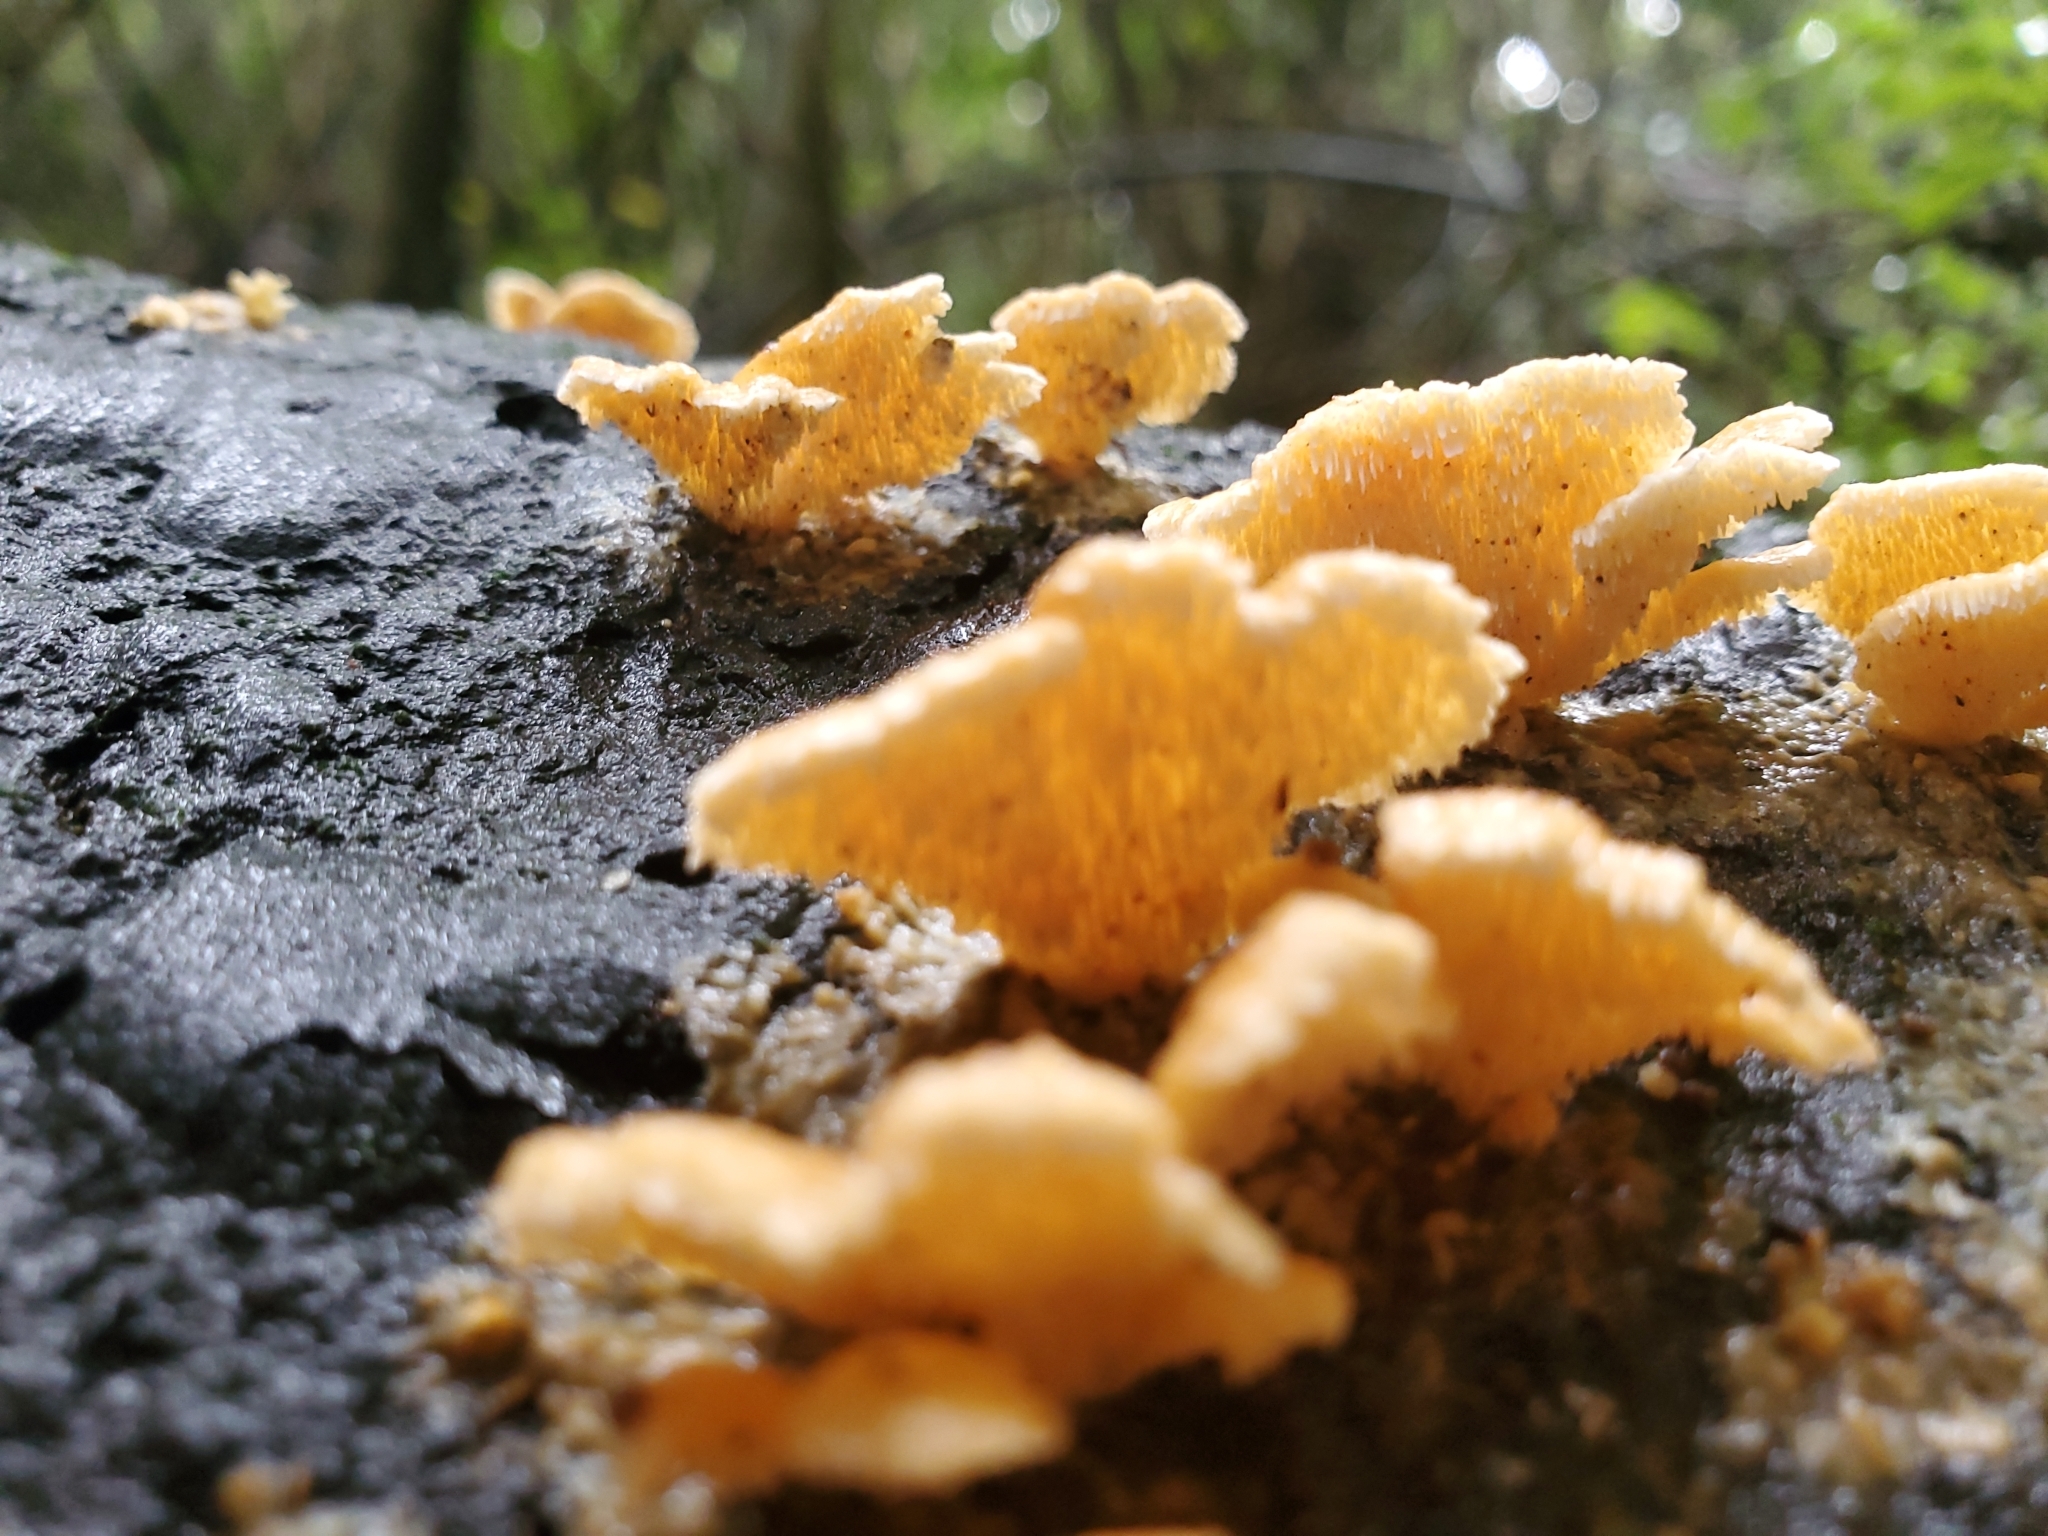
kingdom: Fungi
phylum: Basidiomycota
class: Agaricomycetes
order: Polyporales
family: Cerrenaceae
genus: Cerrena
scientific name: Cerrena zonata
